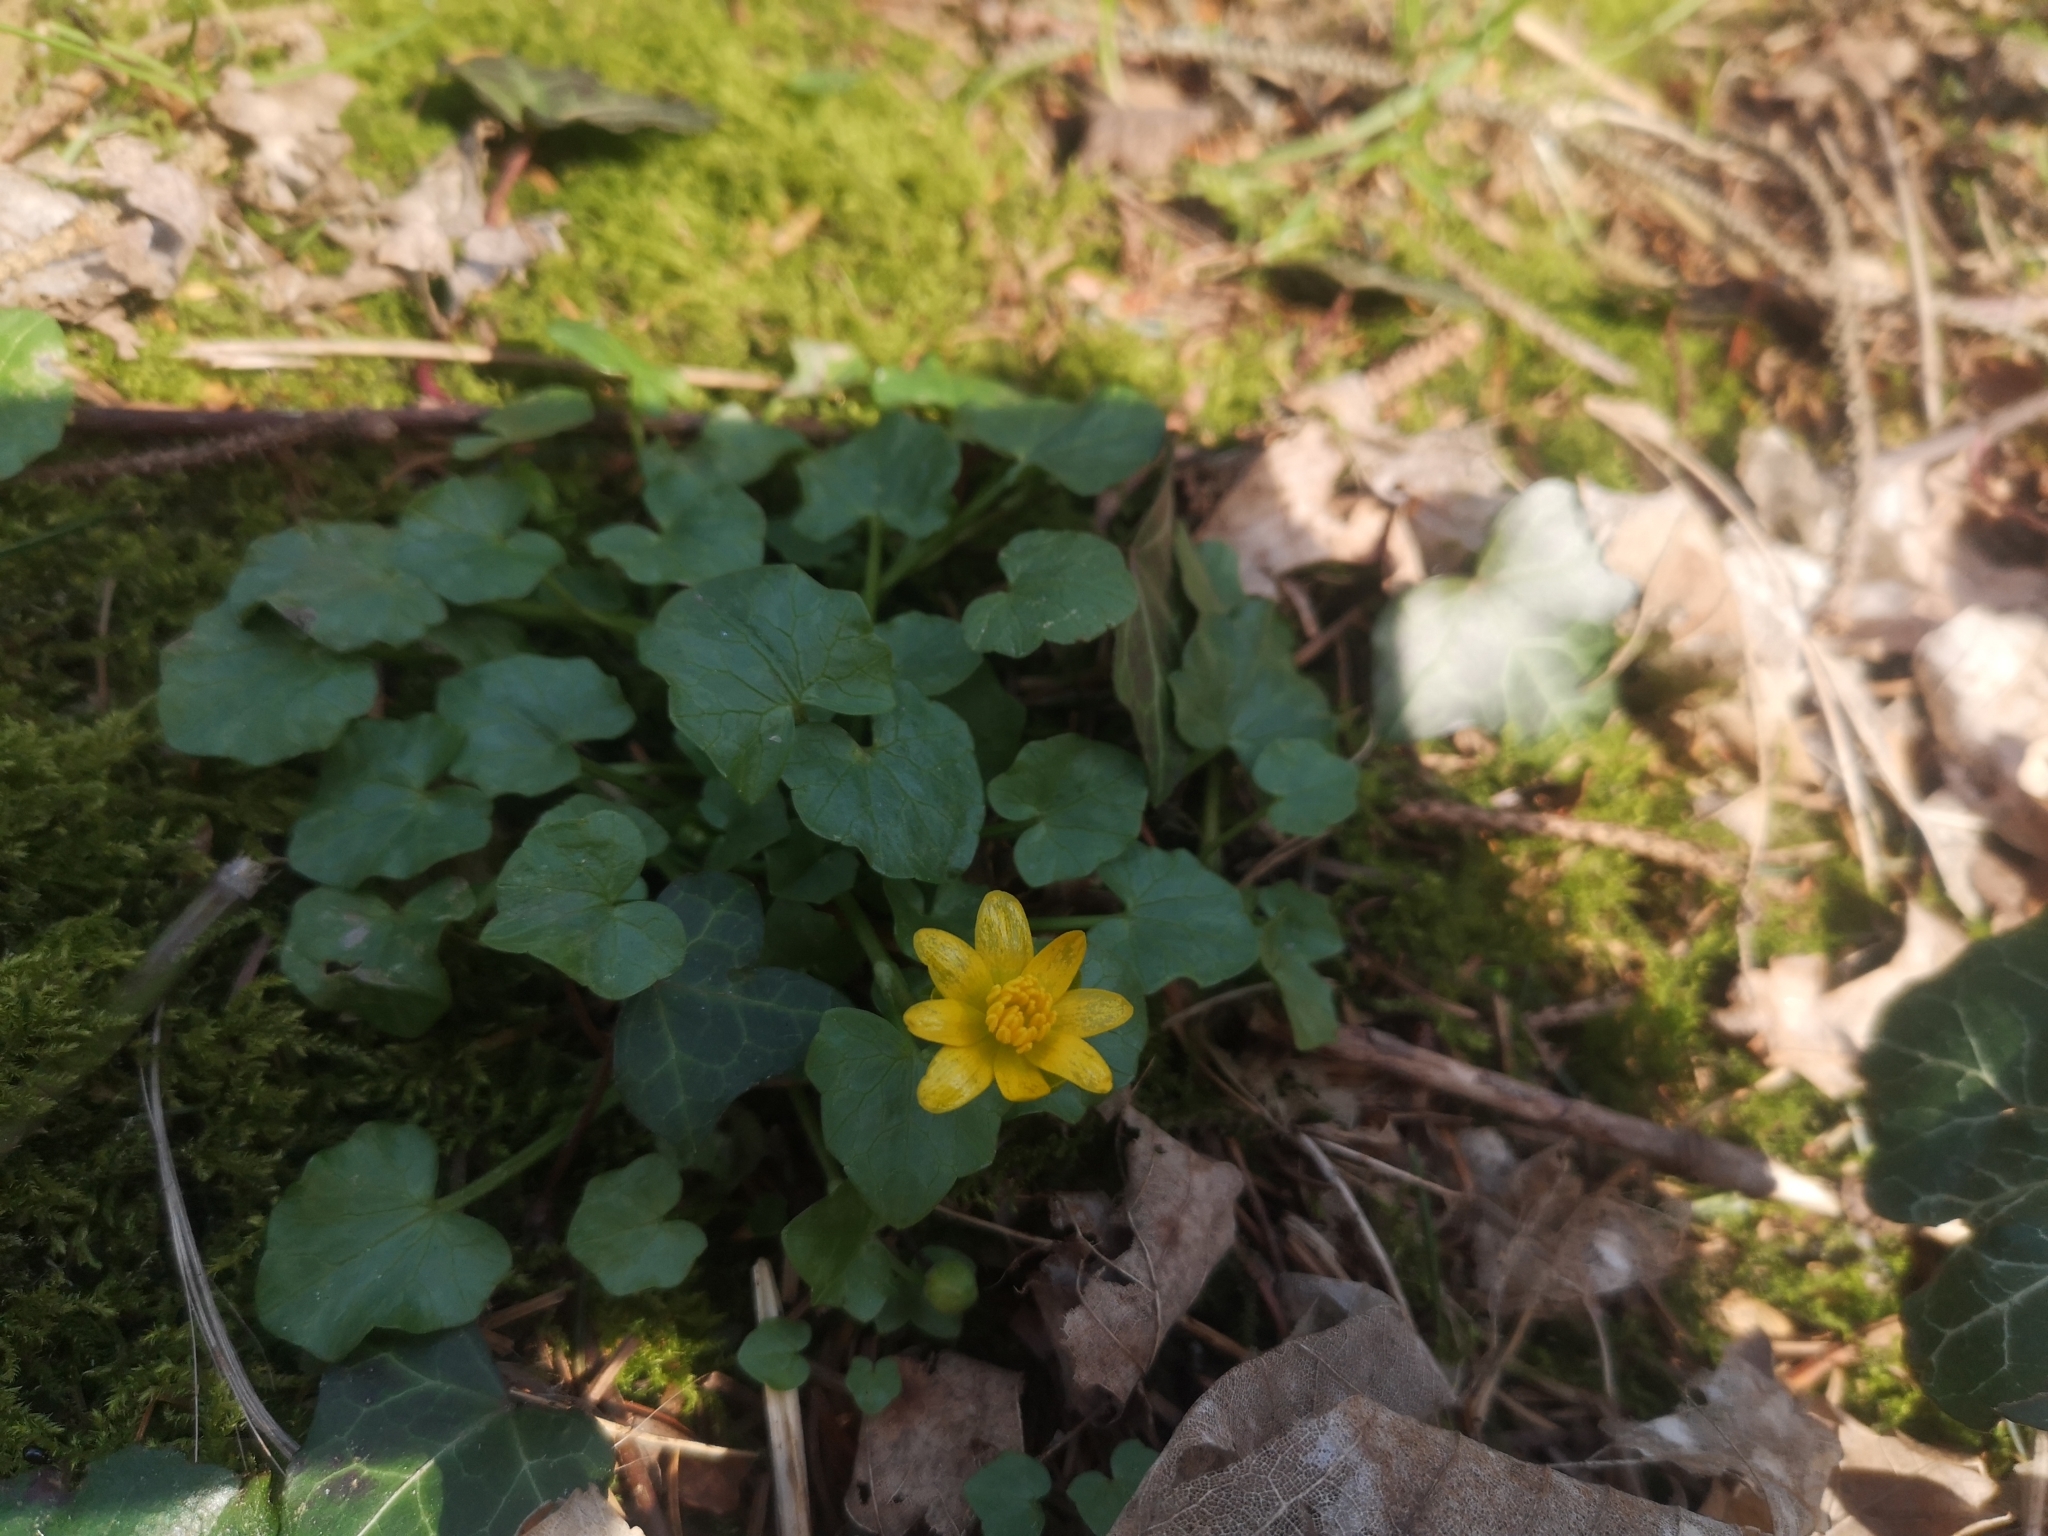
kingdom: Plantae
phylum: Tracheophyta
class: Magnoliopsida
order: Ranunculales
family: Ranunculaceae
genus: Ficaria
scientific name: Ficaria verna
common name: Lesser celandine
